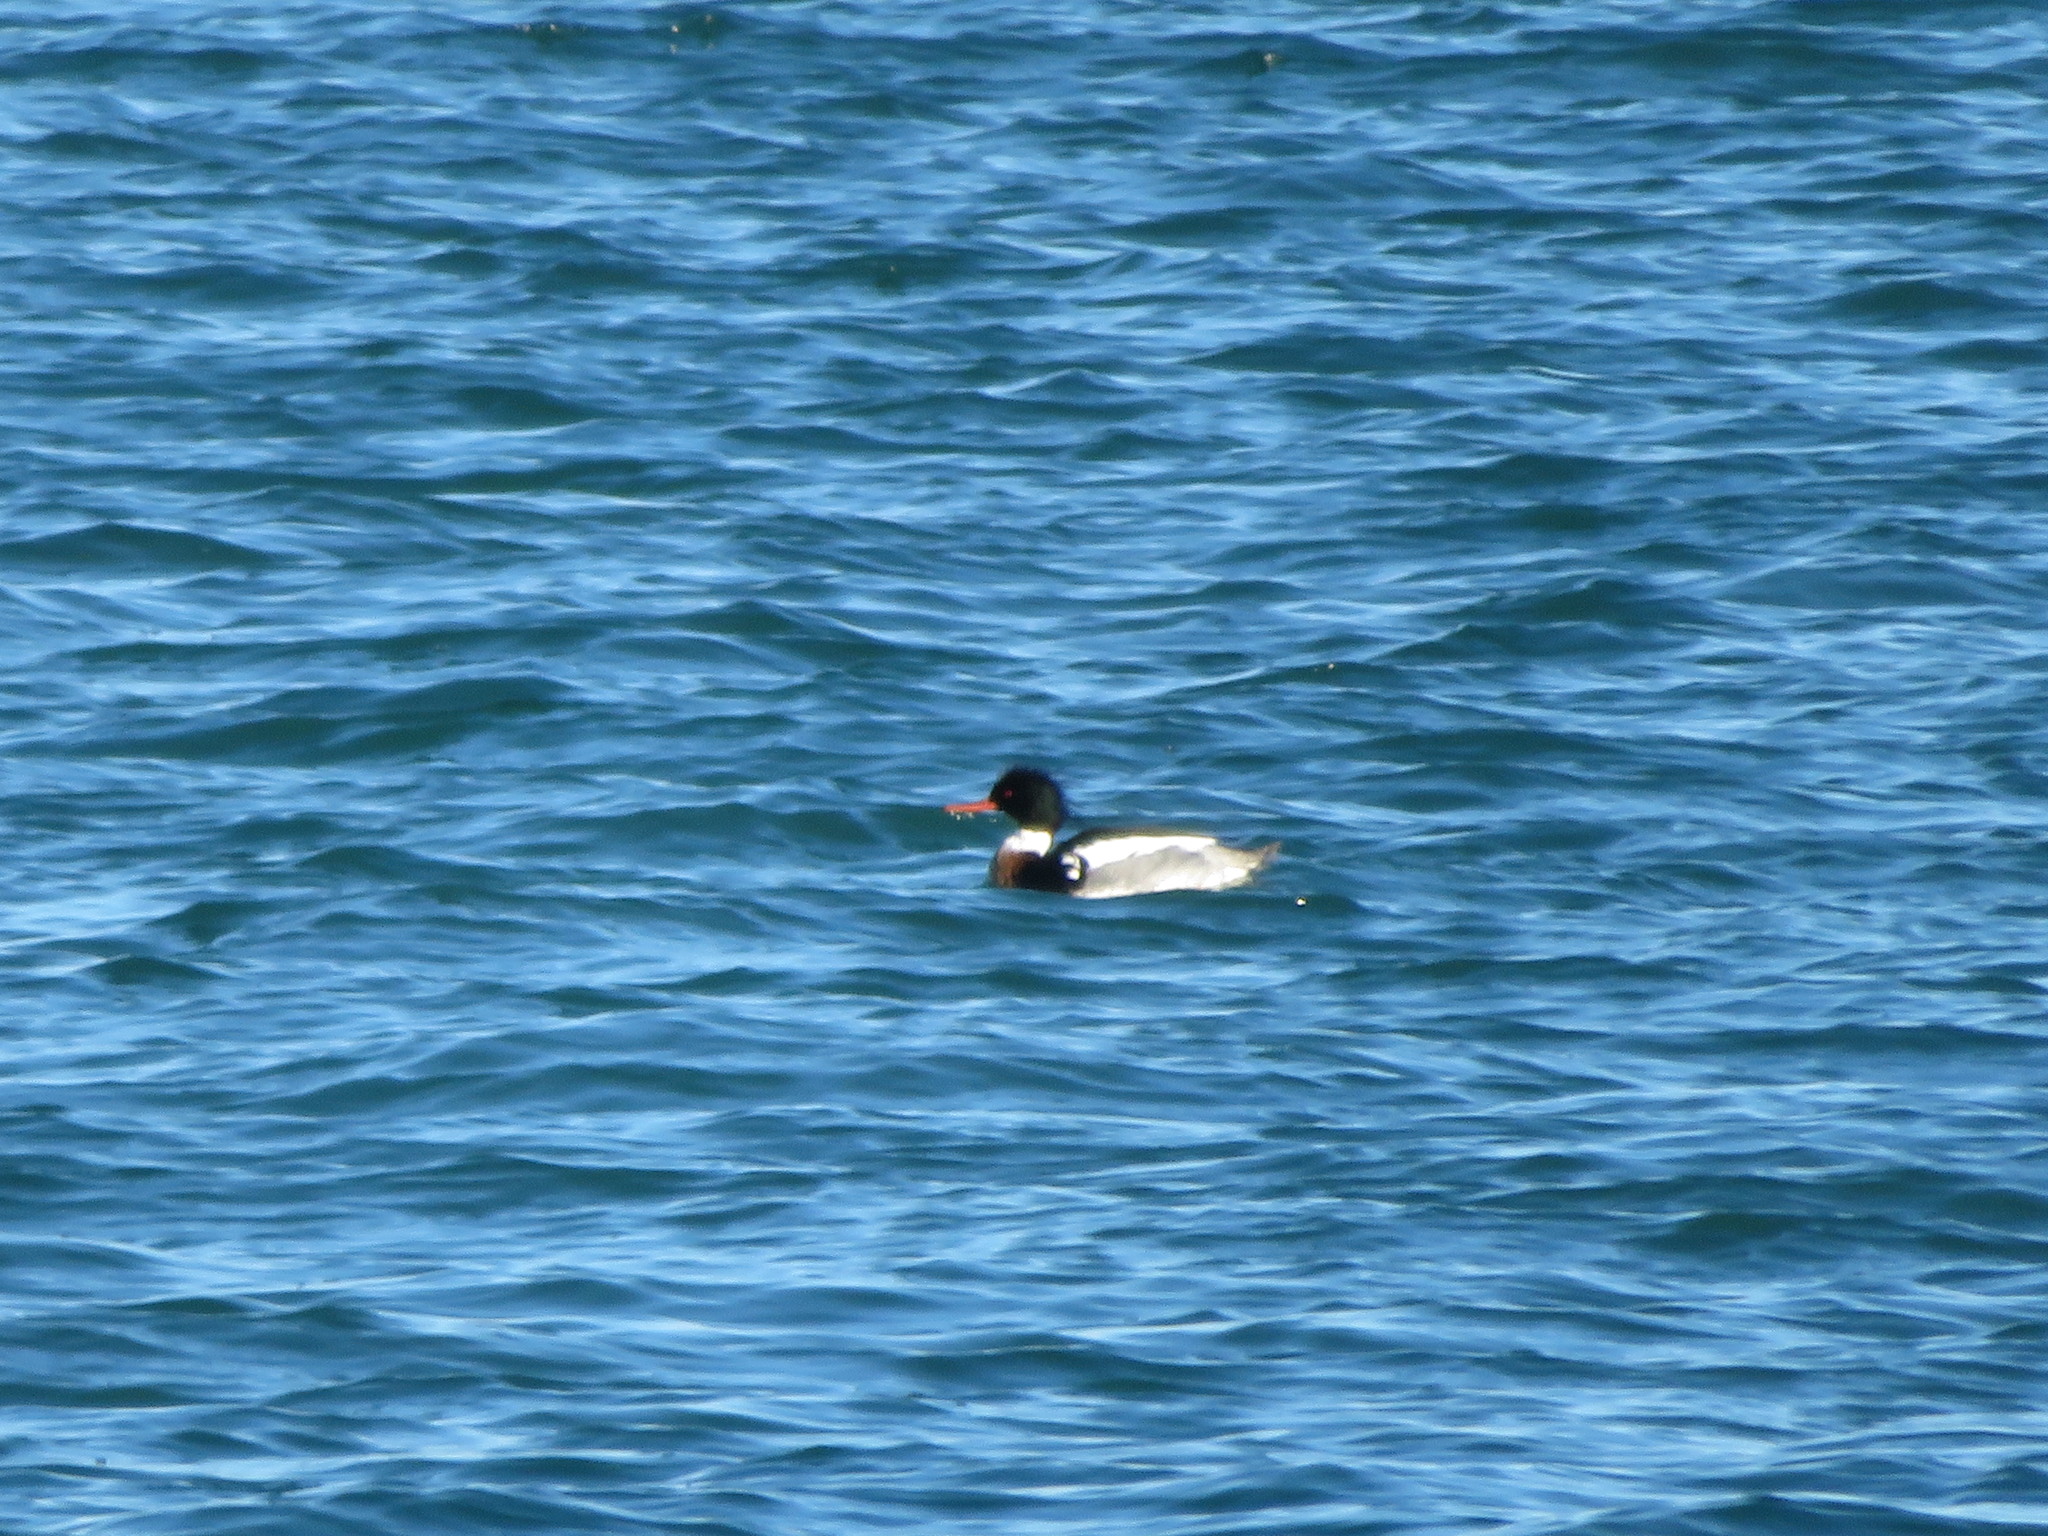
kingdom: Animalia
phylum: Chordata
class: Aves
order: Anseriformes
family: Anatidae
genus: Mergus
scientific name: Mergus serrator
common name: Red-breasted merganser
